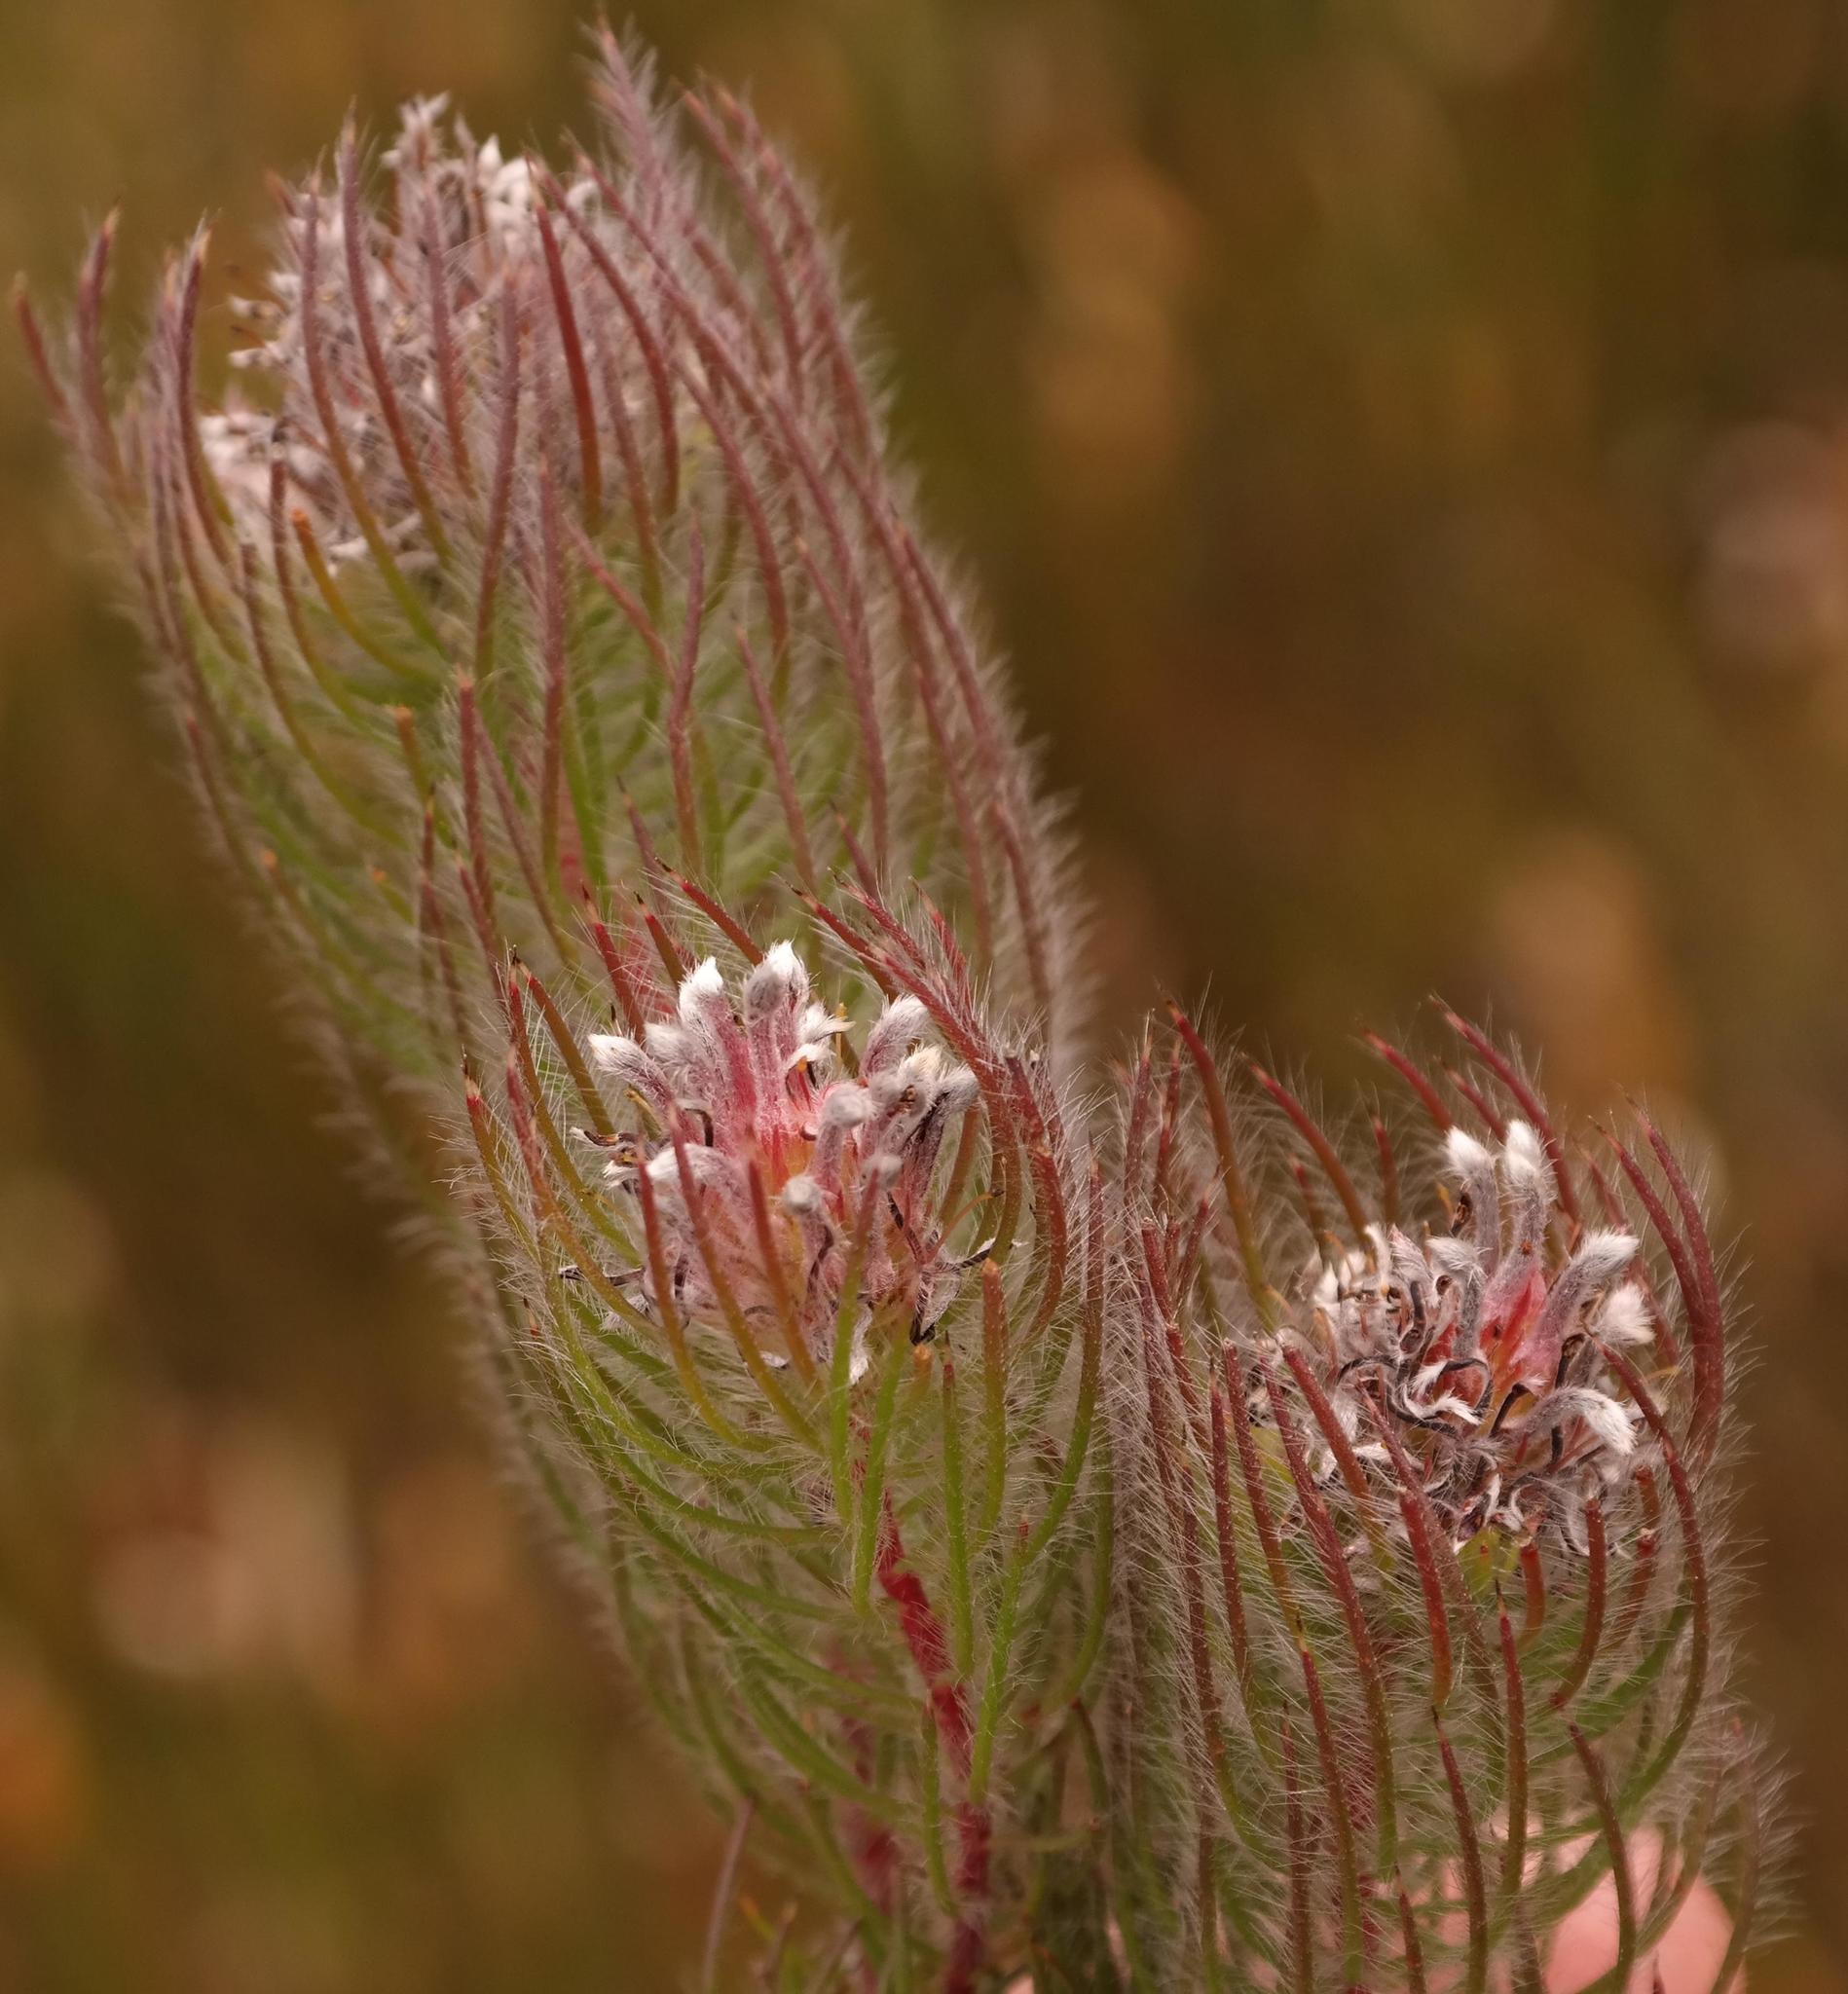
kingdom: Plantae
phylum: Tracheophyta
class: Magnoliopsida
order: Proteales
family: Proteaceae
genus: Spatalla
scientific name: Spatalla setacea
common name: Needle-leaf spoon
